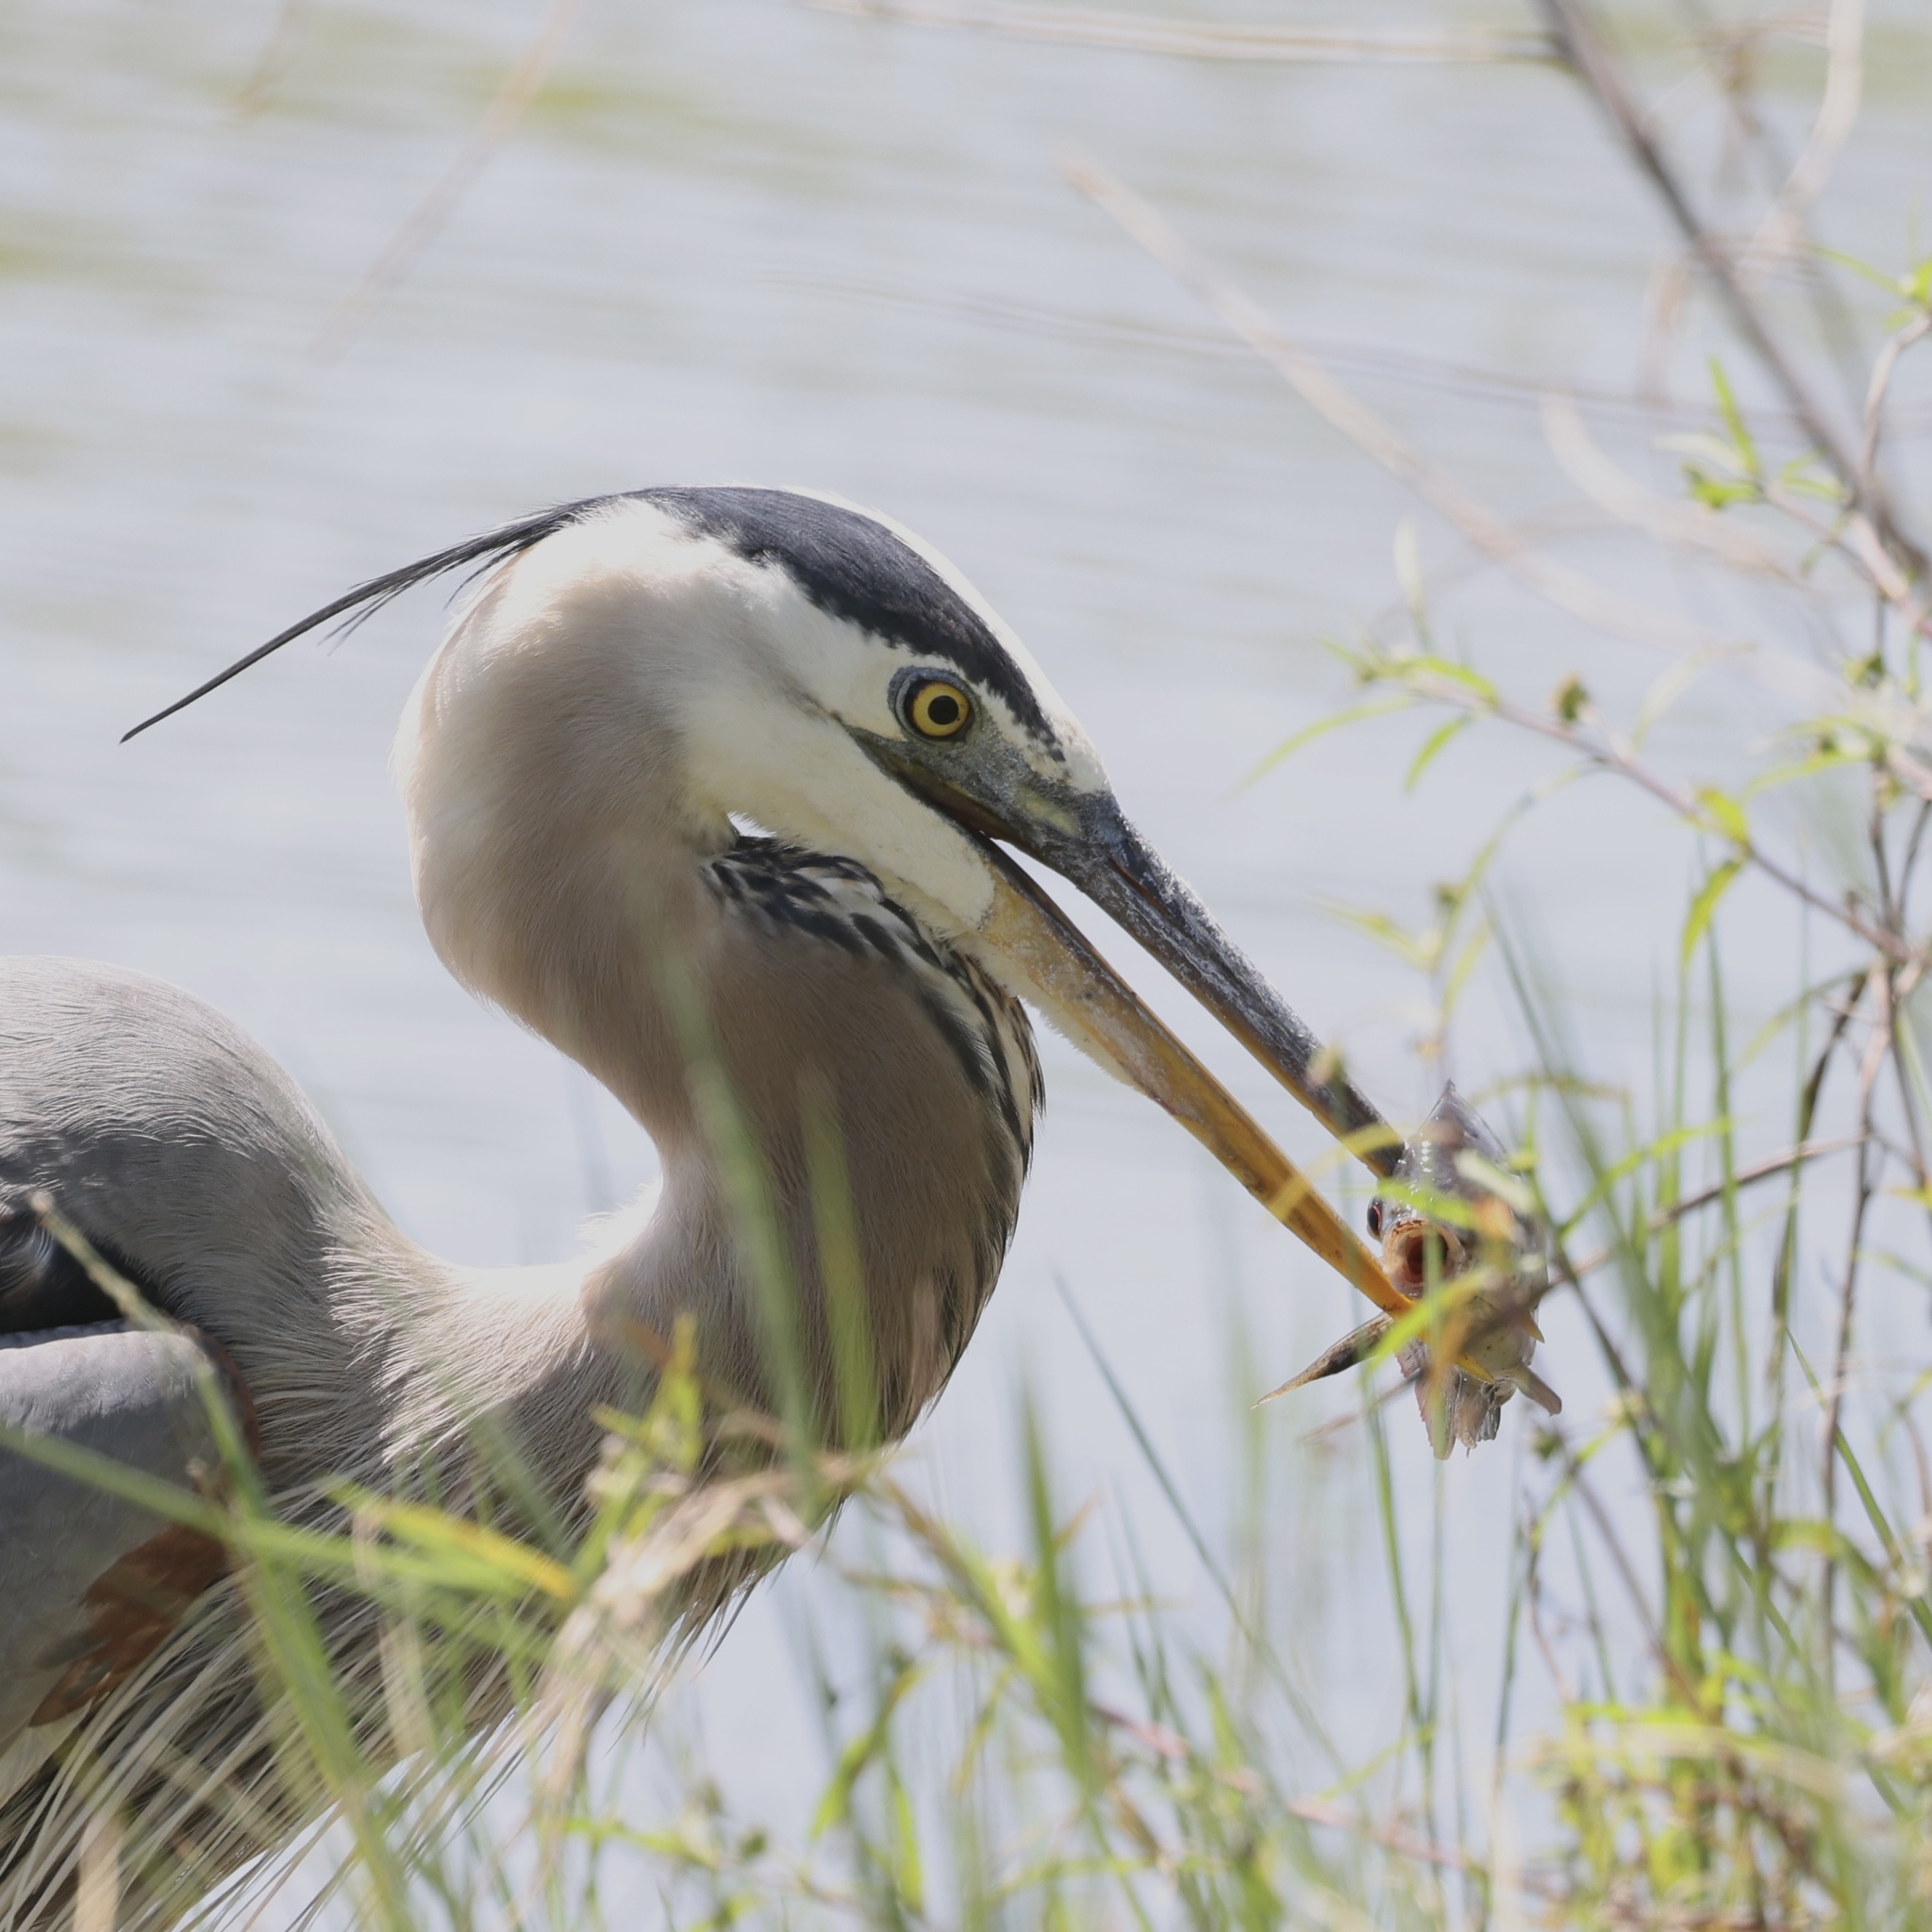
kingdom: Animalia
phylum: Chordata
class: Aves
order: Pelecaniformes
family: Ardeidae
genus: Ardea
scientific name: Ardea herodias
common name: Great blue heron
